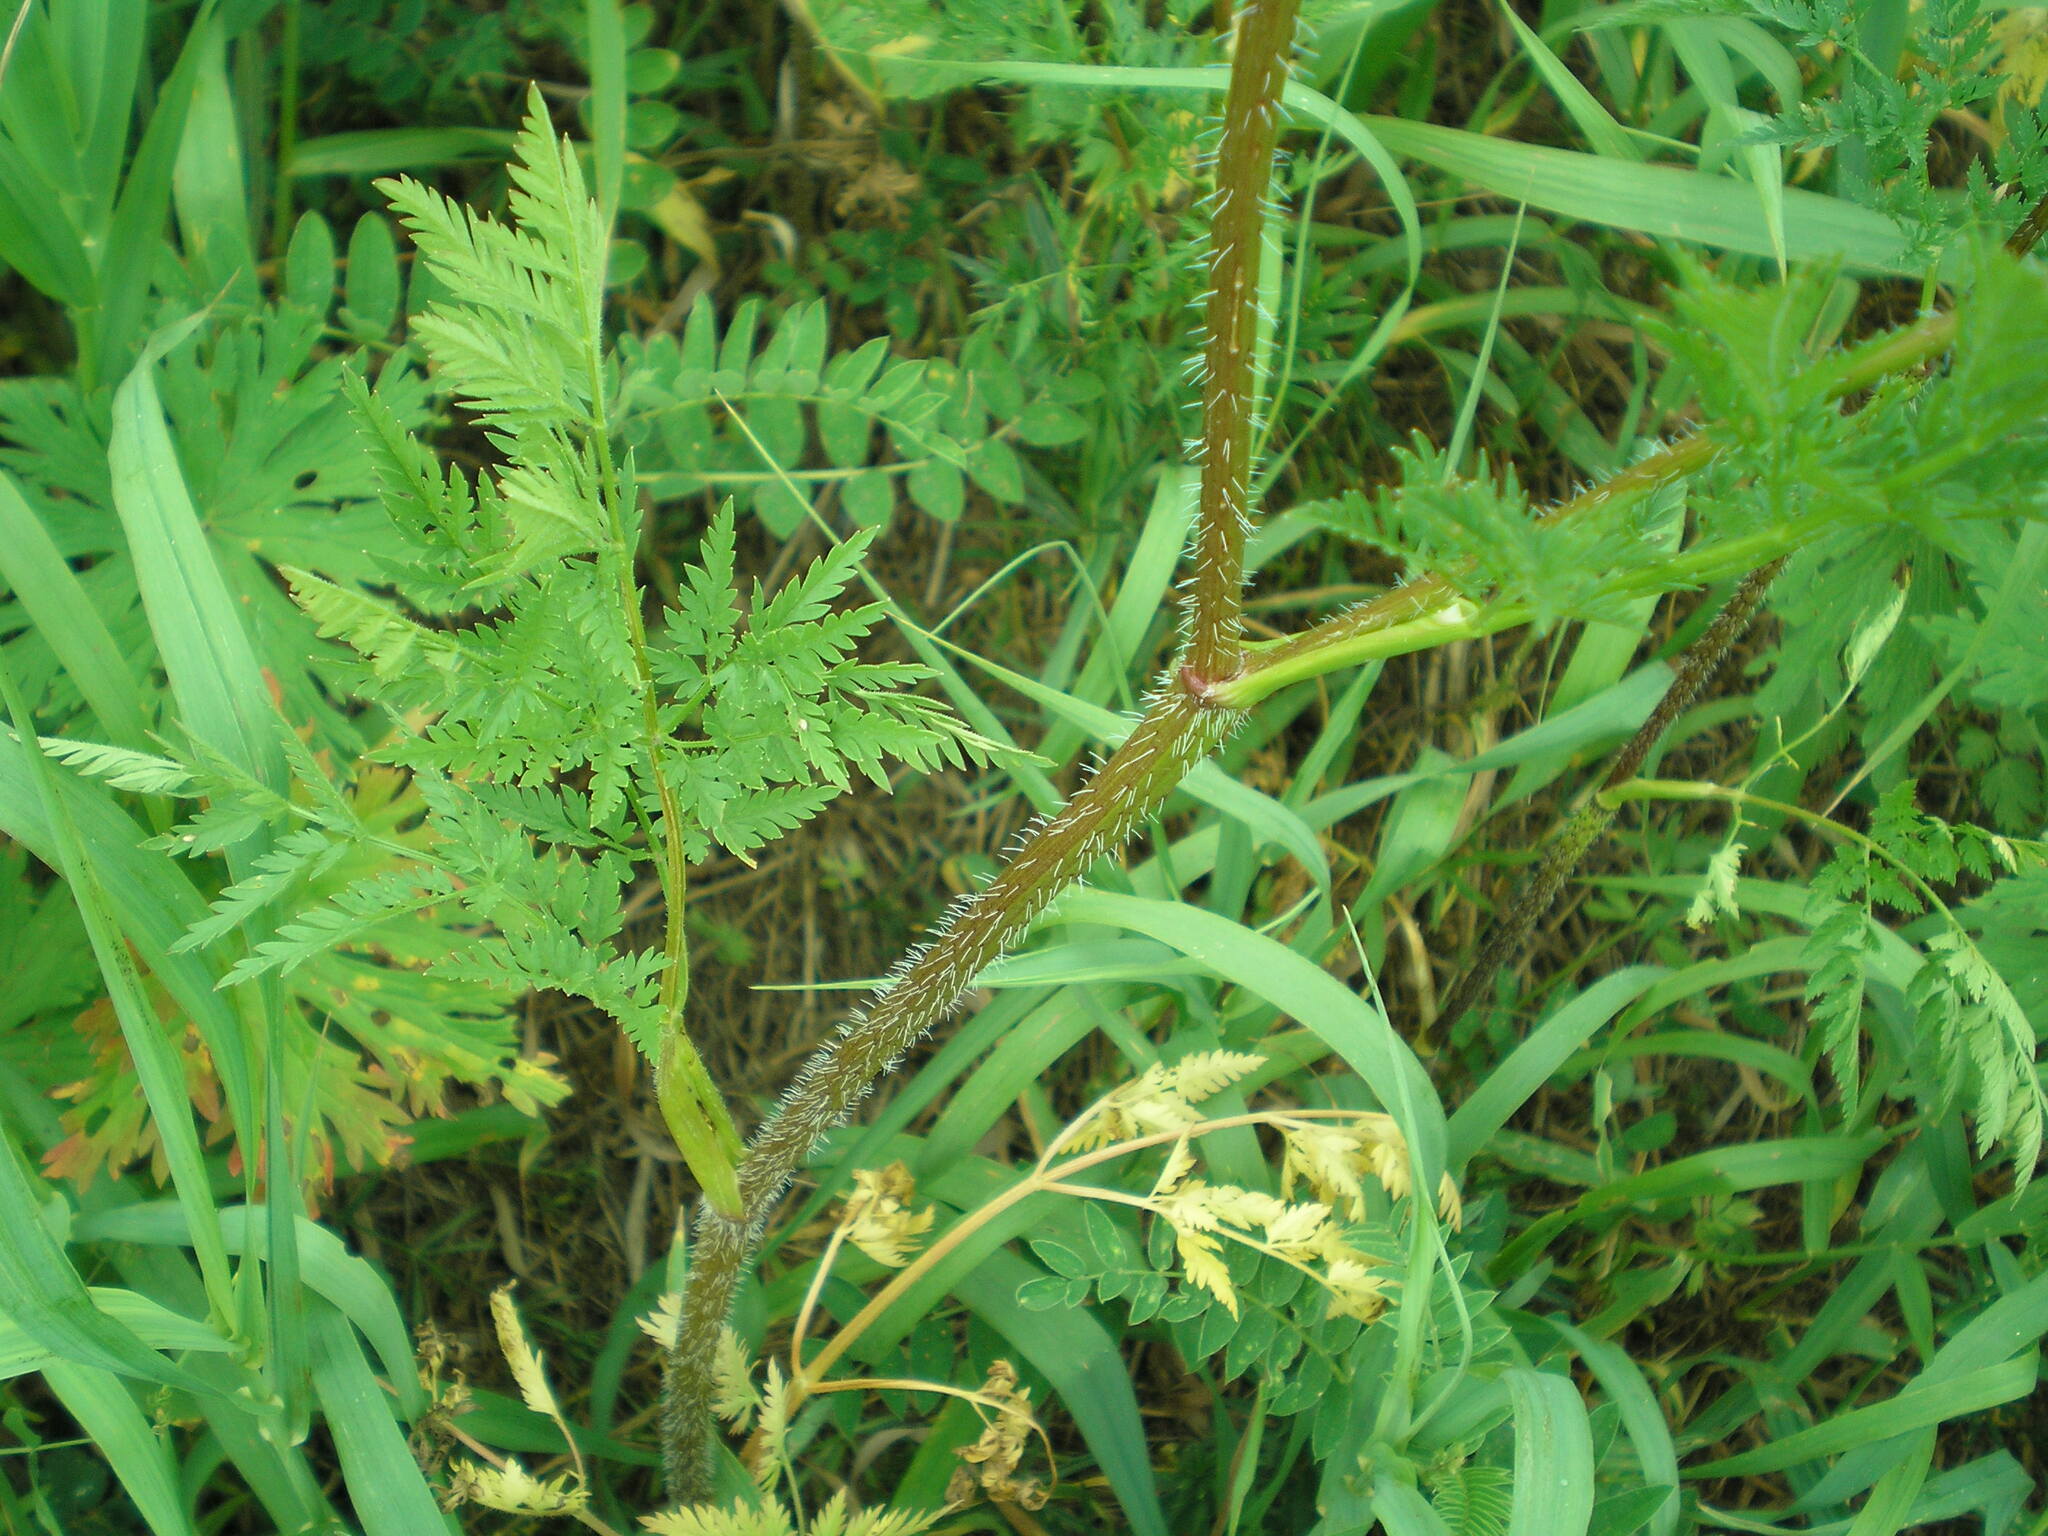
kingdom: Plantae
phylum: Tracheophyta
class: Magnoliopsida
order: Apiales
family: Apiaceae
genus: Chaerophyllum
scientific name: Chaerophyllum prescottii
